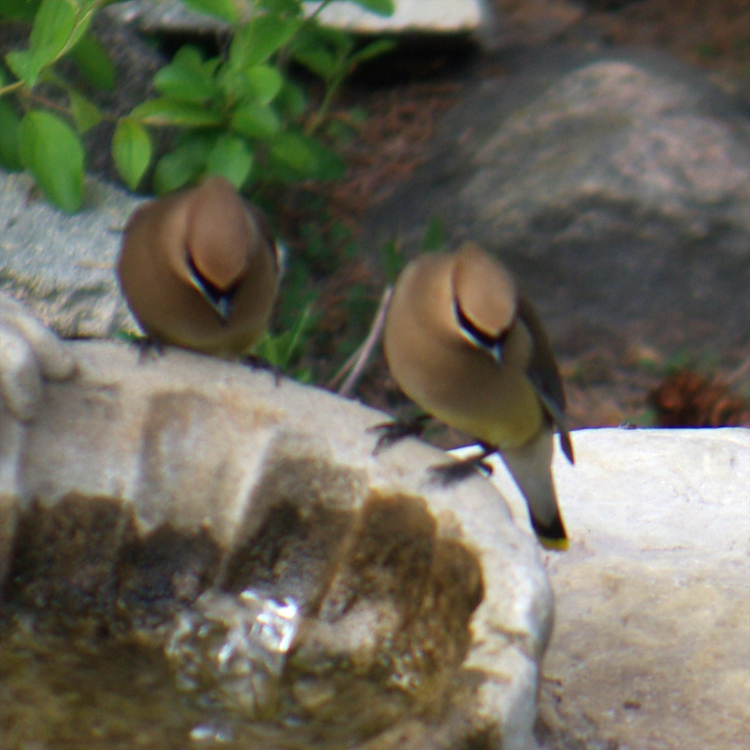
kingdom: Animalia
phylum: Chordata
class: Aves
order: Passeriformes
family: Bombycillidae
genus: Bombycilla
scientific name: Bombycilla cedrorum
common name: Cedar waxwing
